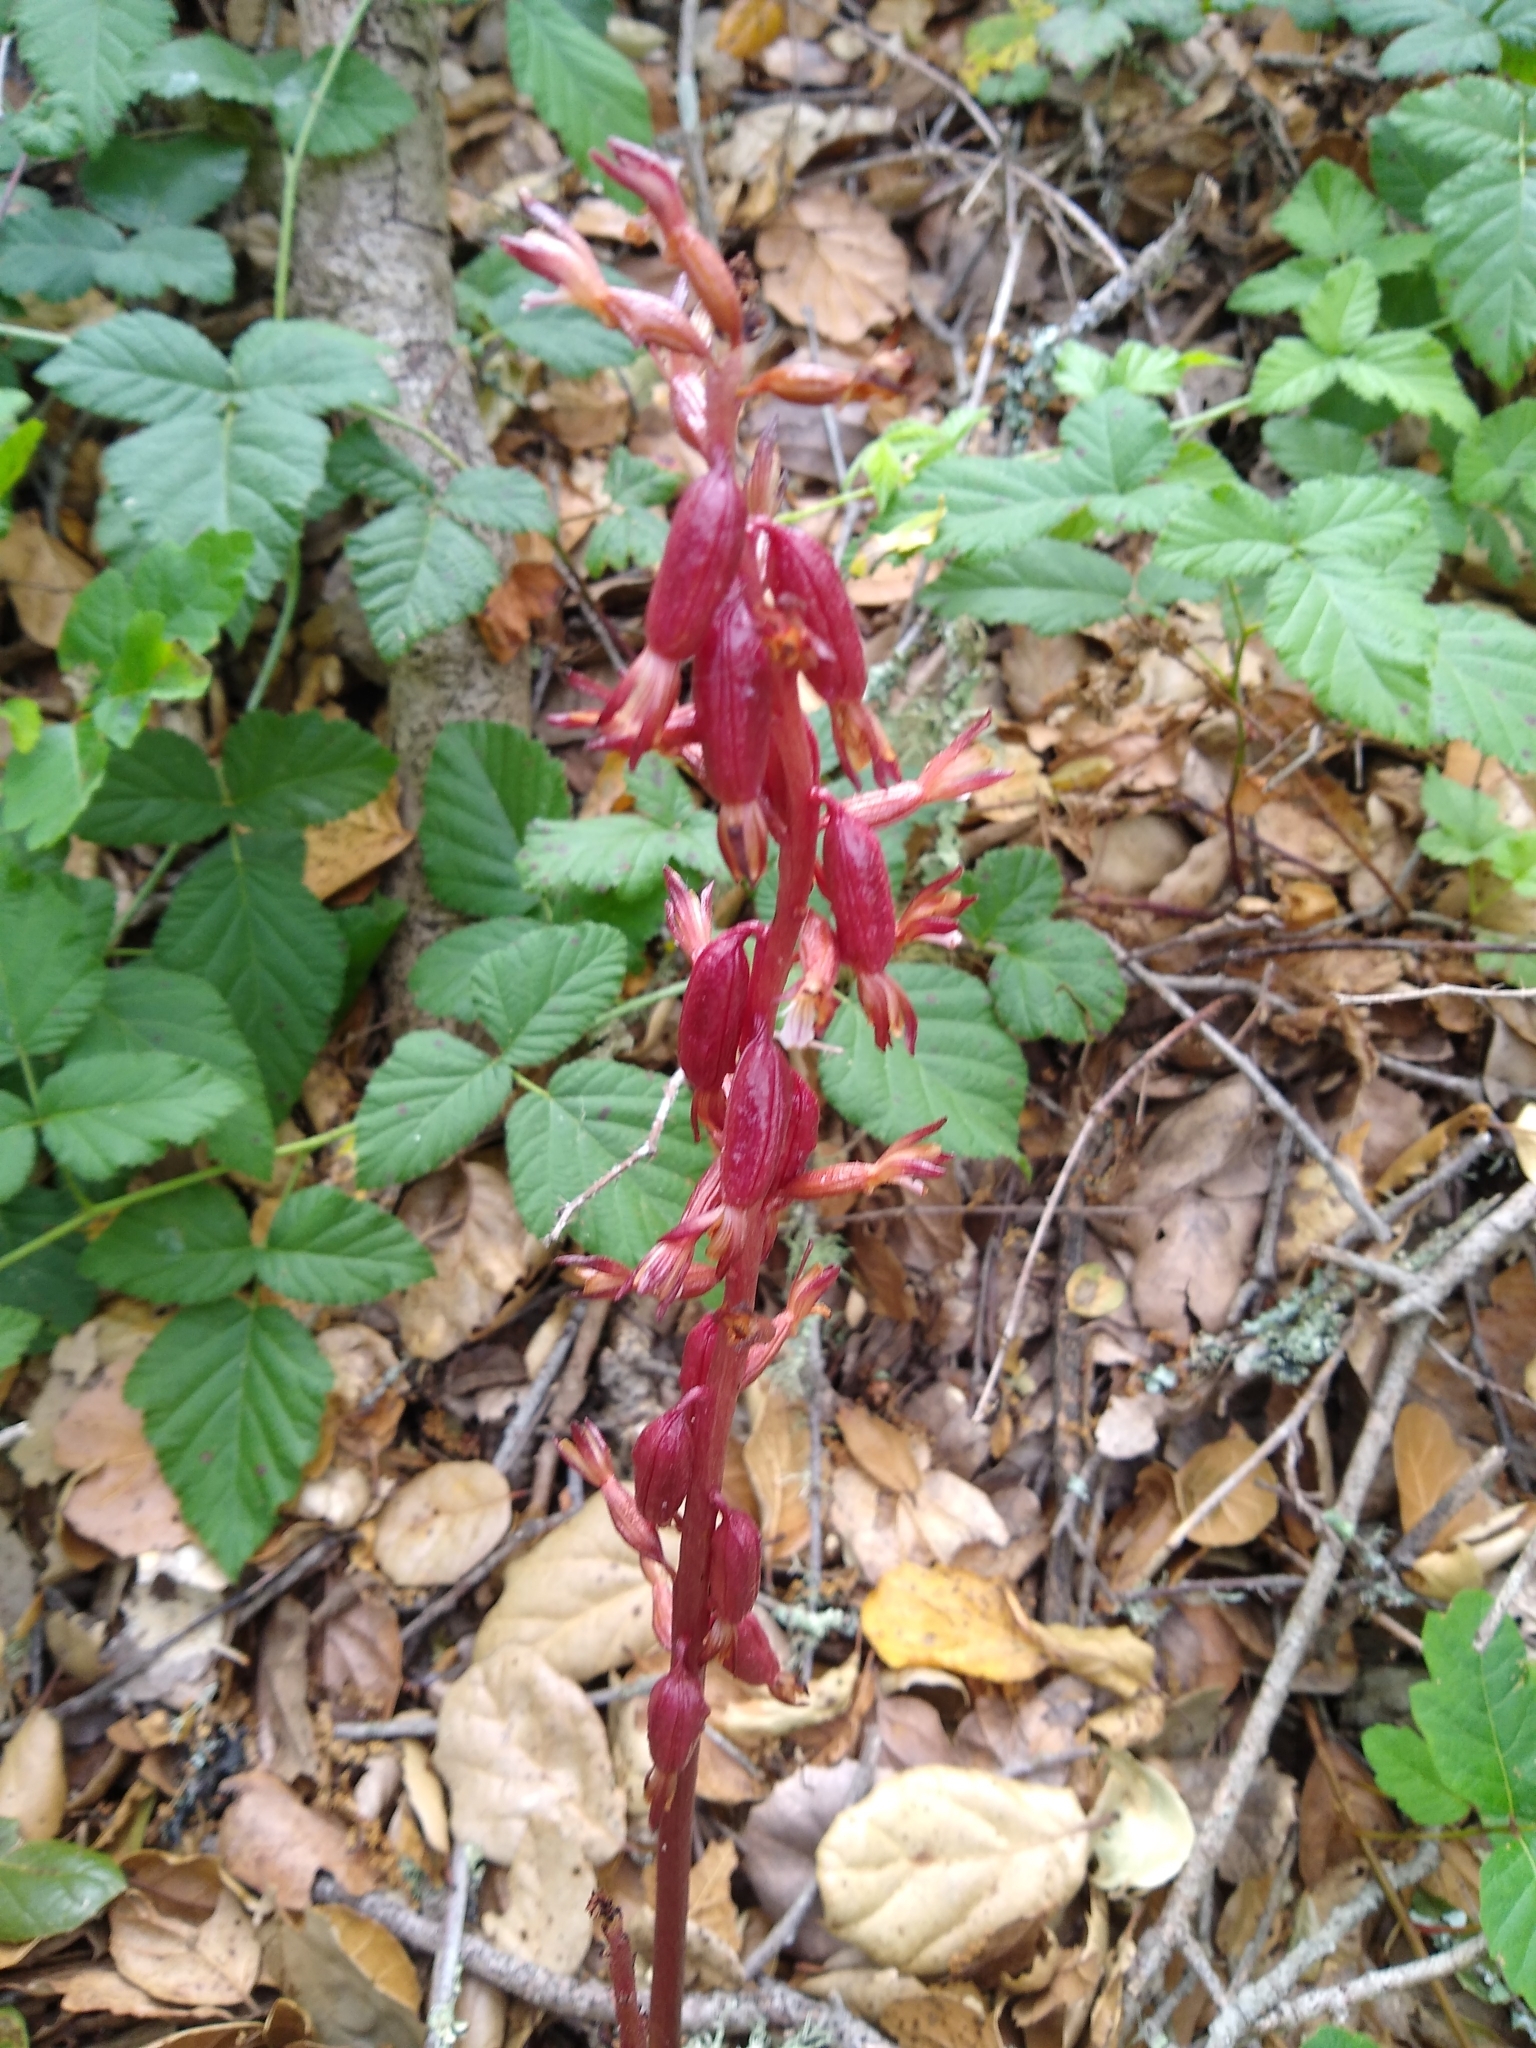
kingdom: Plantae
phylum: Tracheophyta
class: Liliopsida
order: Asparagales
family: Orchidaceae
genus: Corallorhiza
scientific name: Corallorhiza maculata
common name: Spotted coralroot
